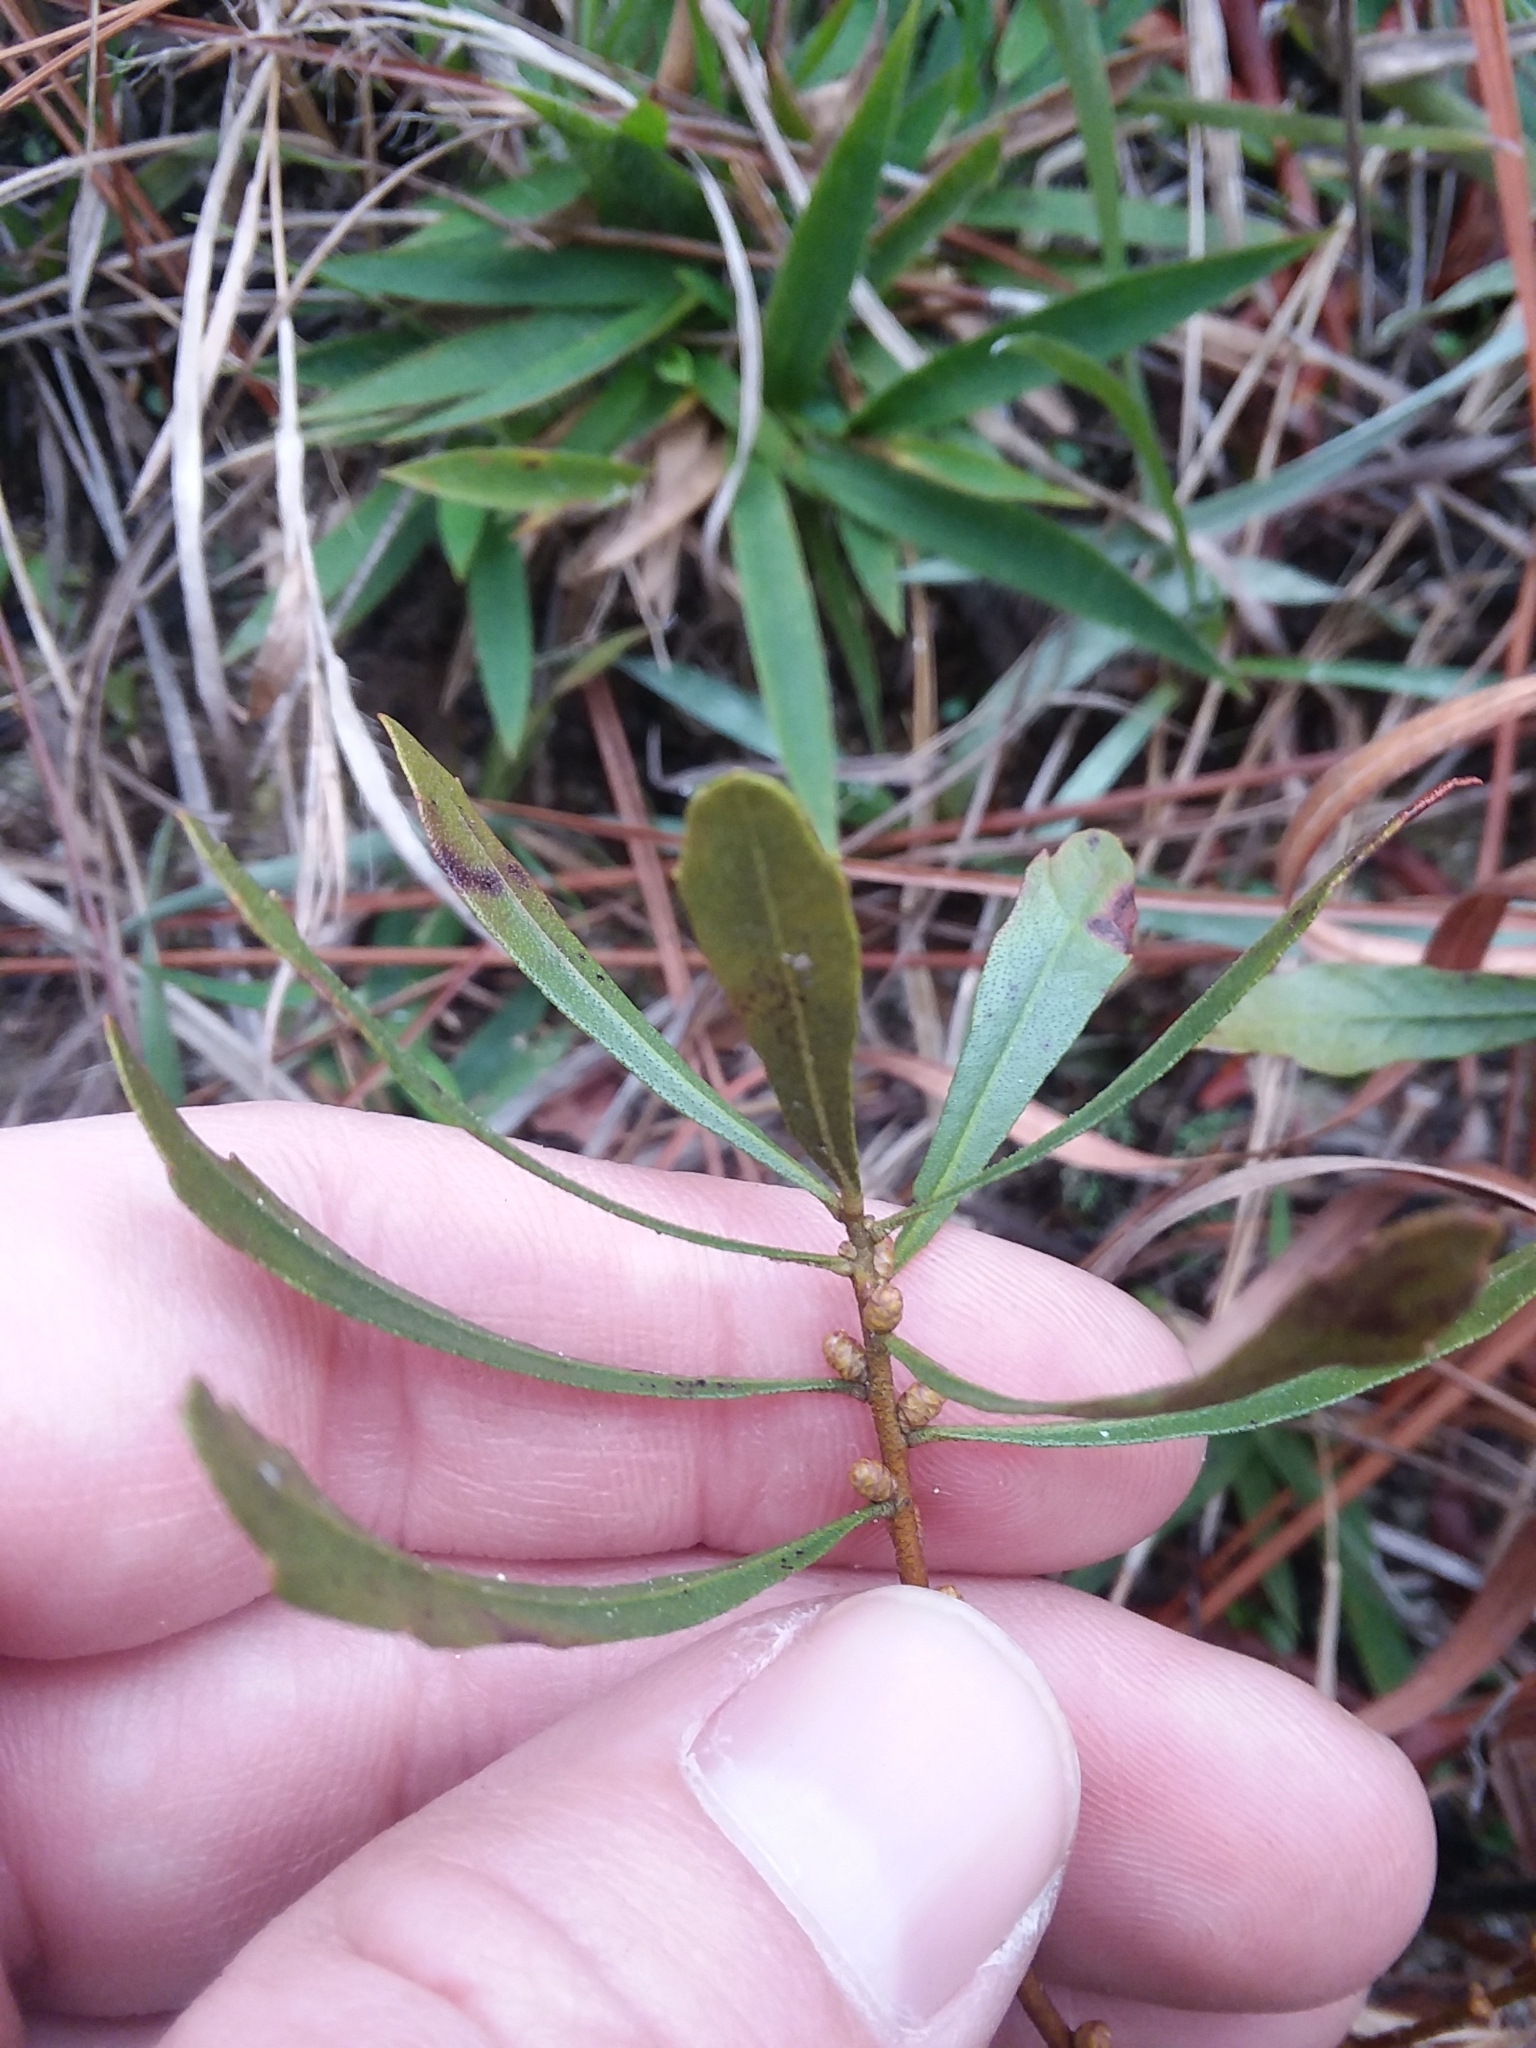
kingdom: Plantae
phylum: Tracheophyta
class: Magnoliopsida
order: Fagales
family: Myricaceae
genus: Morella
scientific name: Morella cerifera
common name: Wax myrtle
